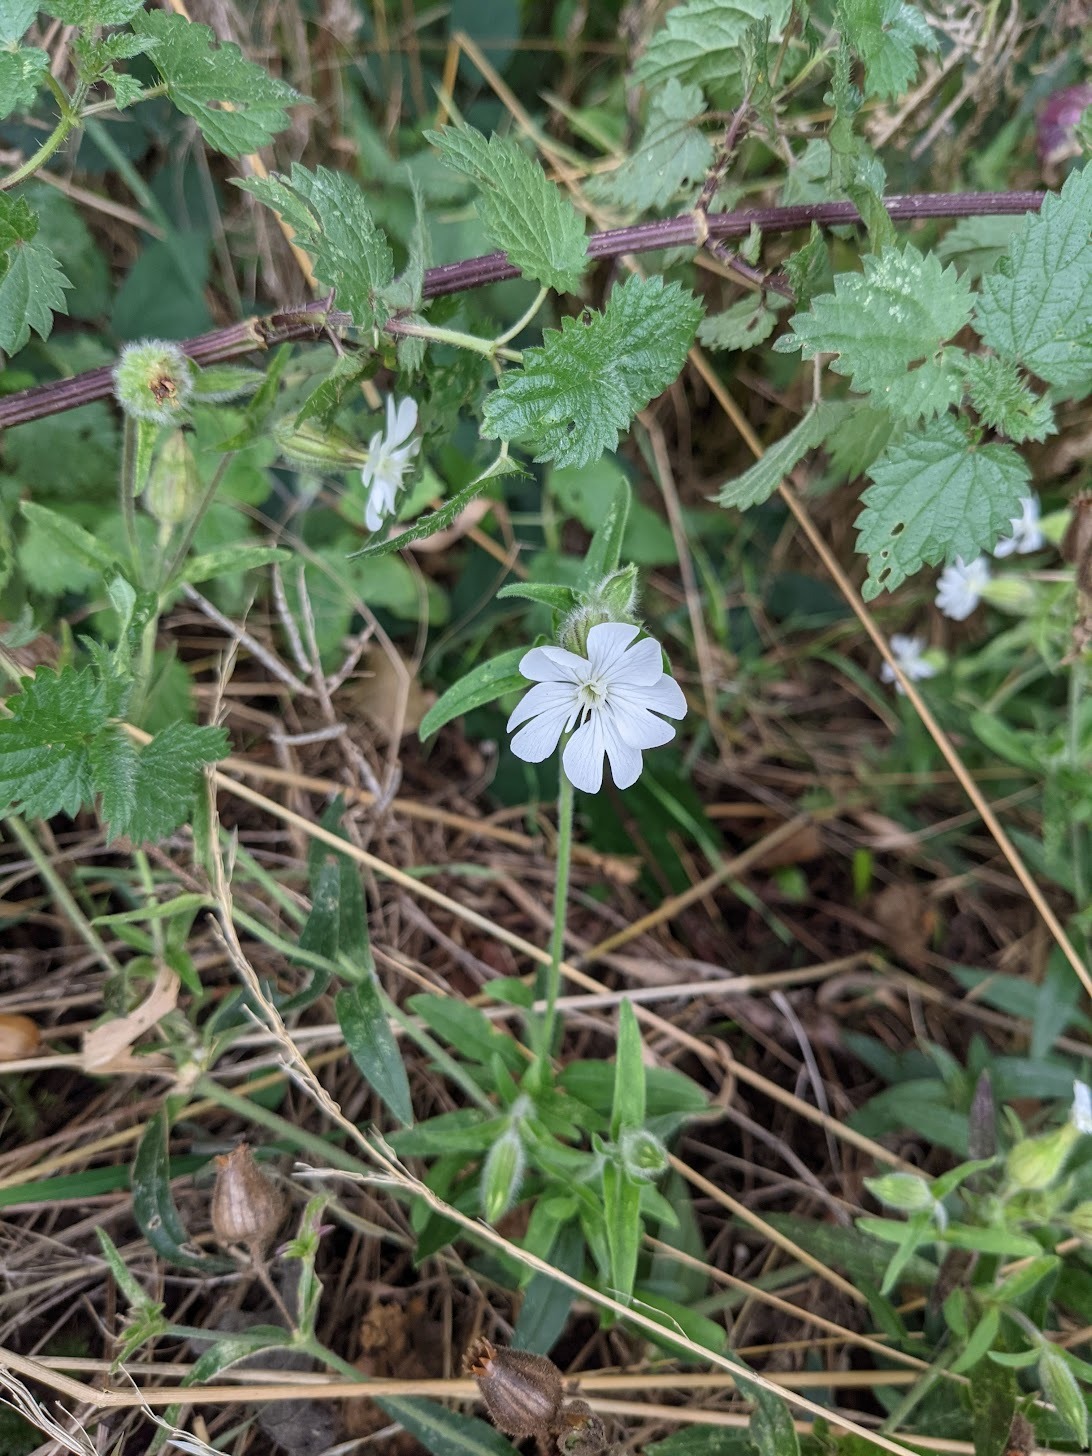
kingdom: Plantae
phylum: Tracheophyta
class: Magnoliopsida
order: Caryophyllales
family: Caryophyllaceae
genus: Silene
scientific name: Silene latifolia
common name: White campion
